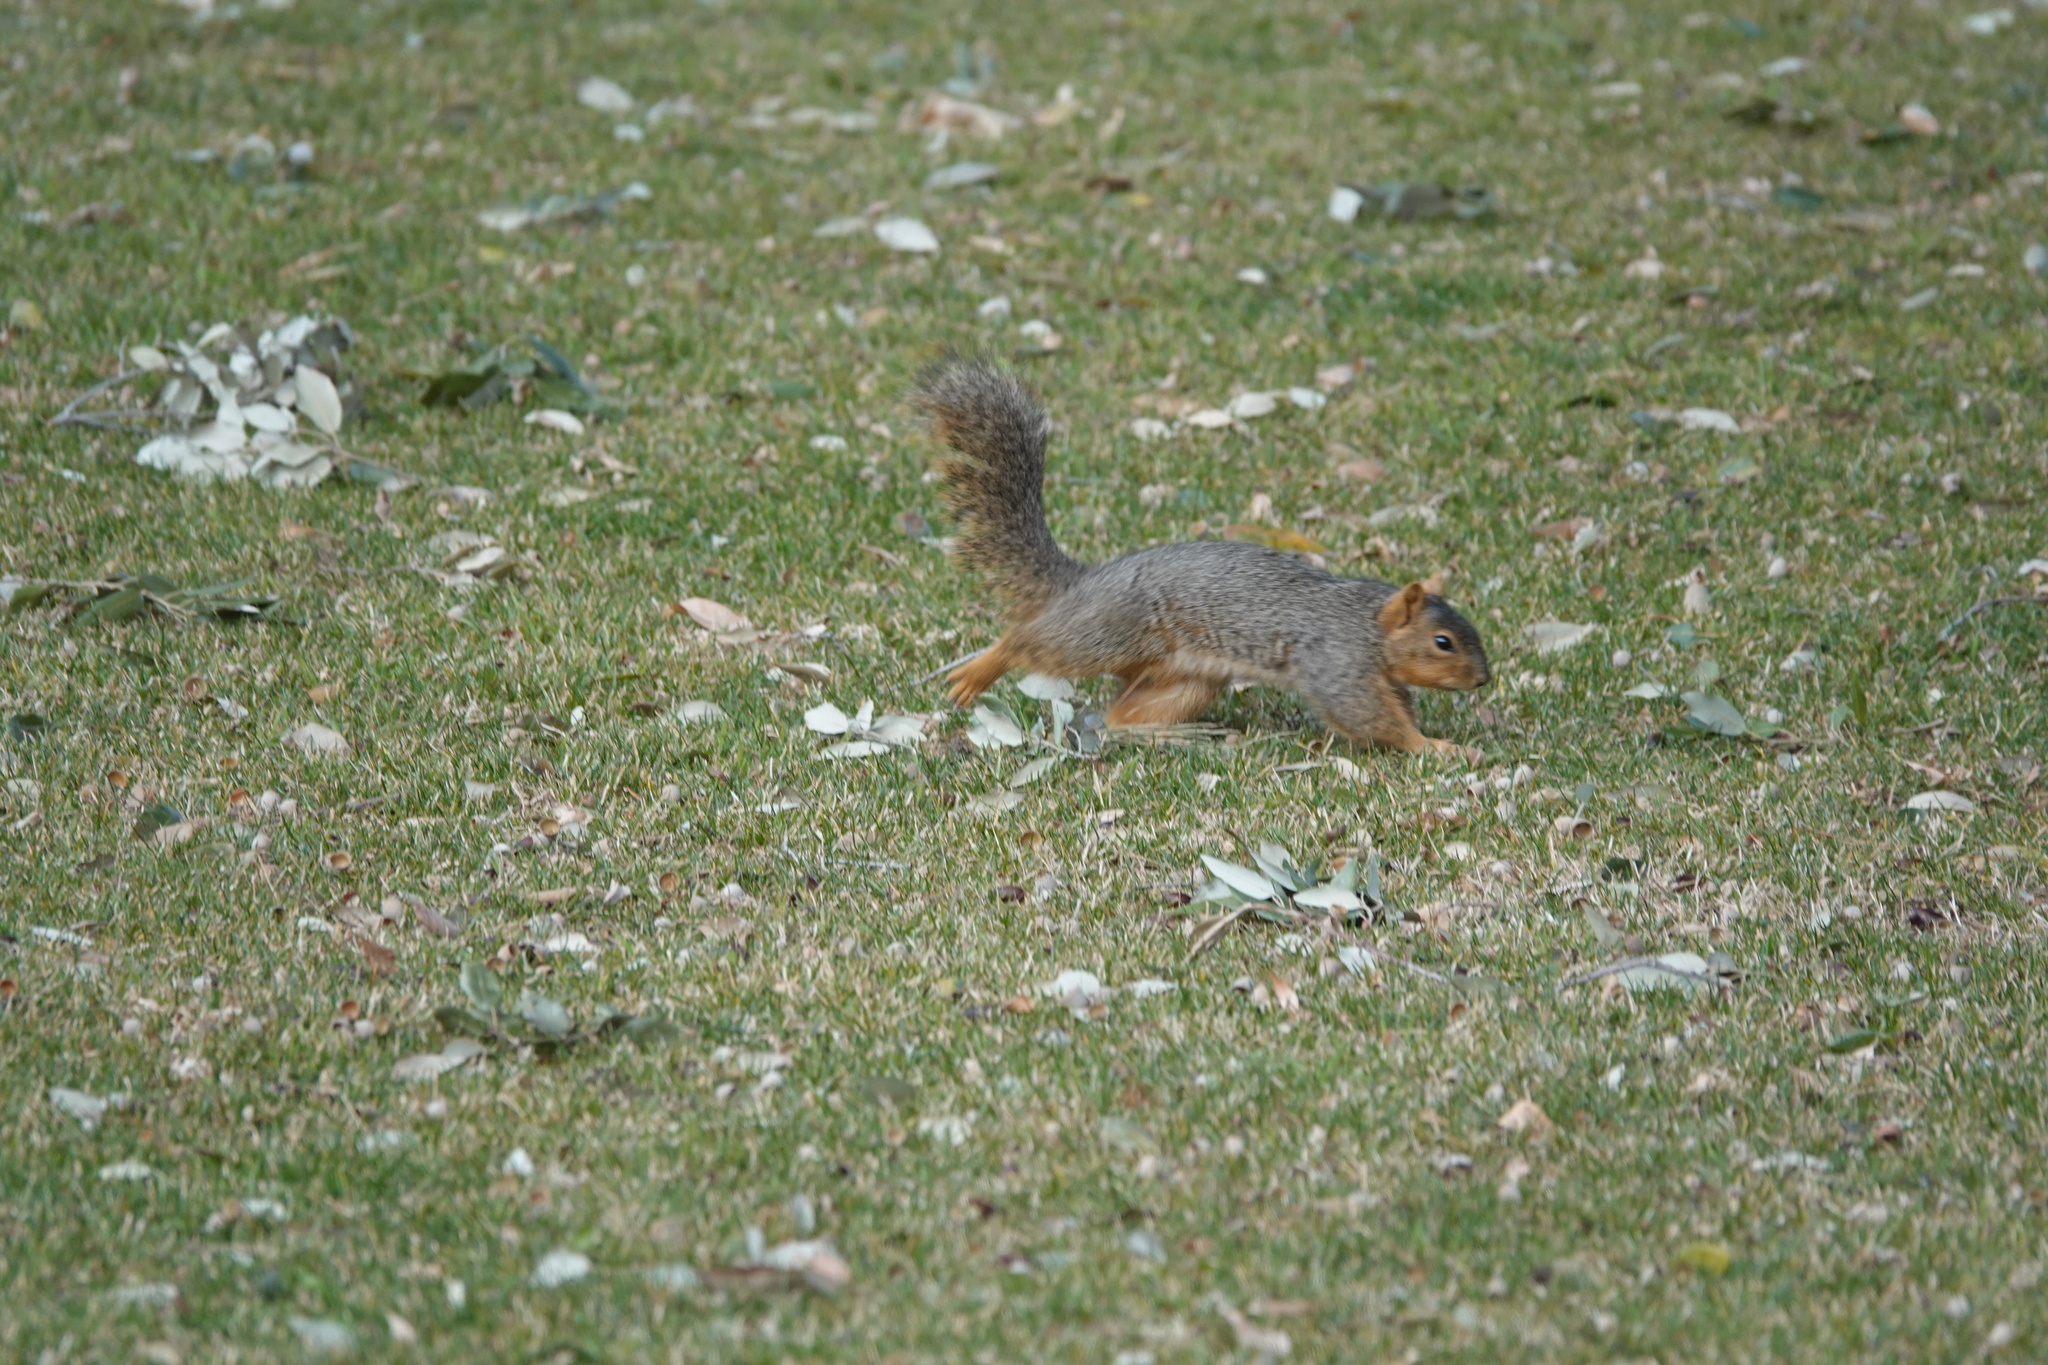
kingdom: Animalia
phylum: Chordata
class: Mammalia
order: Rodentia
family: Sciuridae
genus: Sciurus
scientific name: Sciurus niger
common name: Fox squirrel
